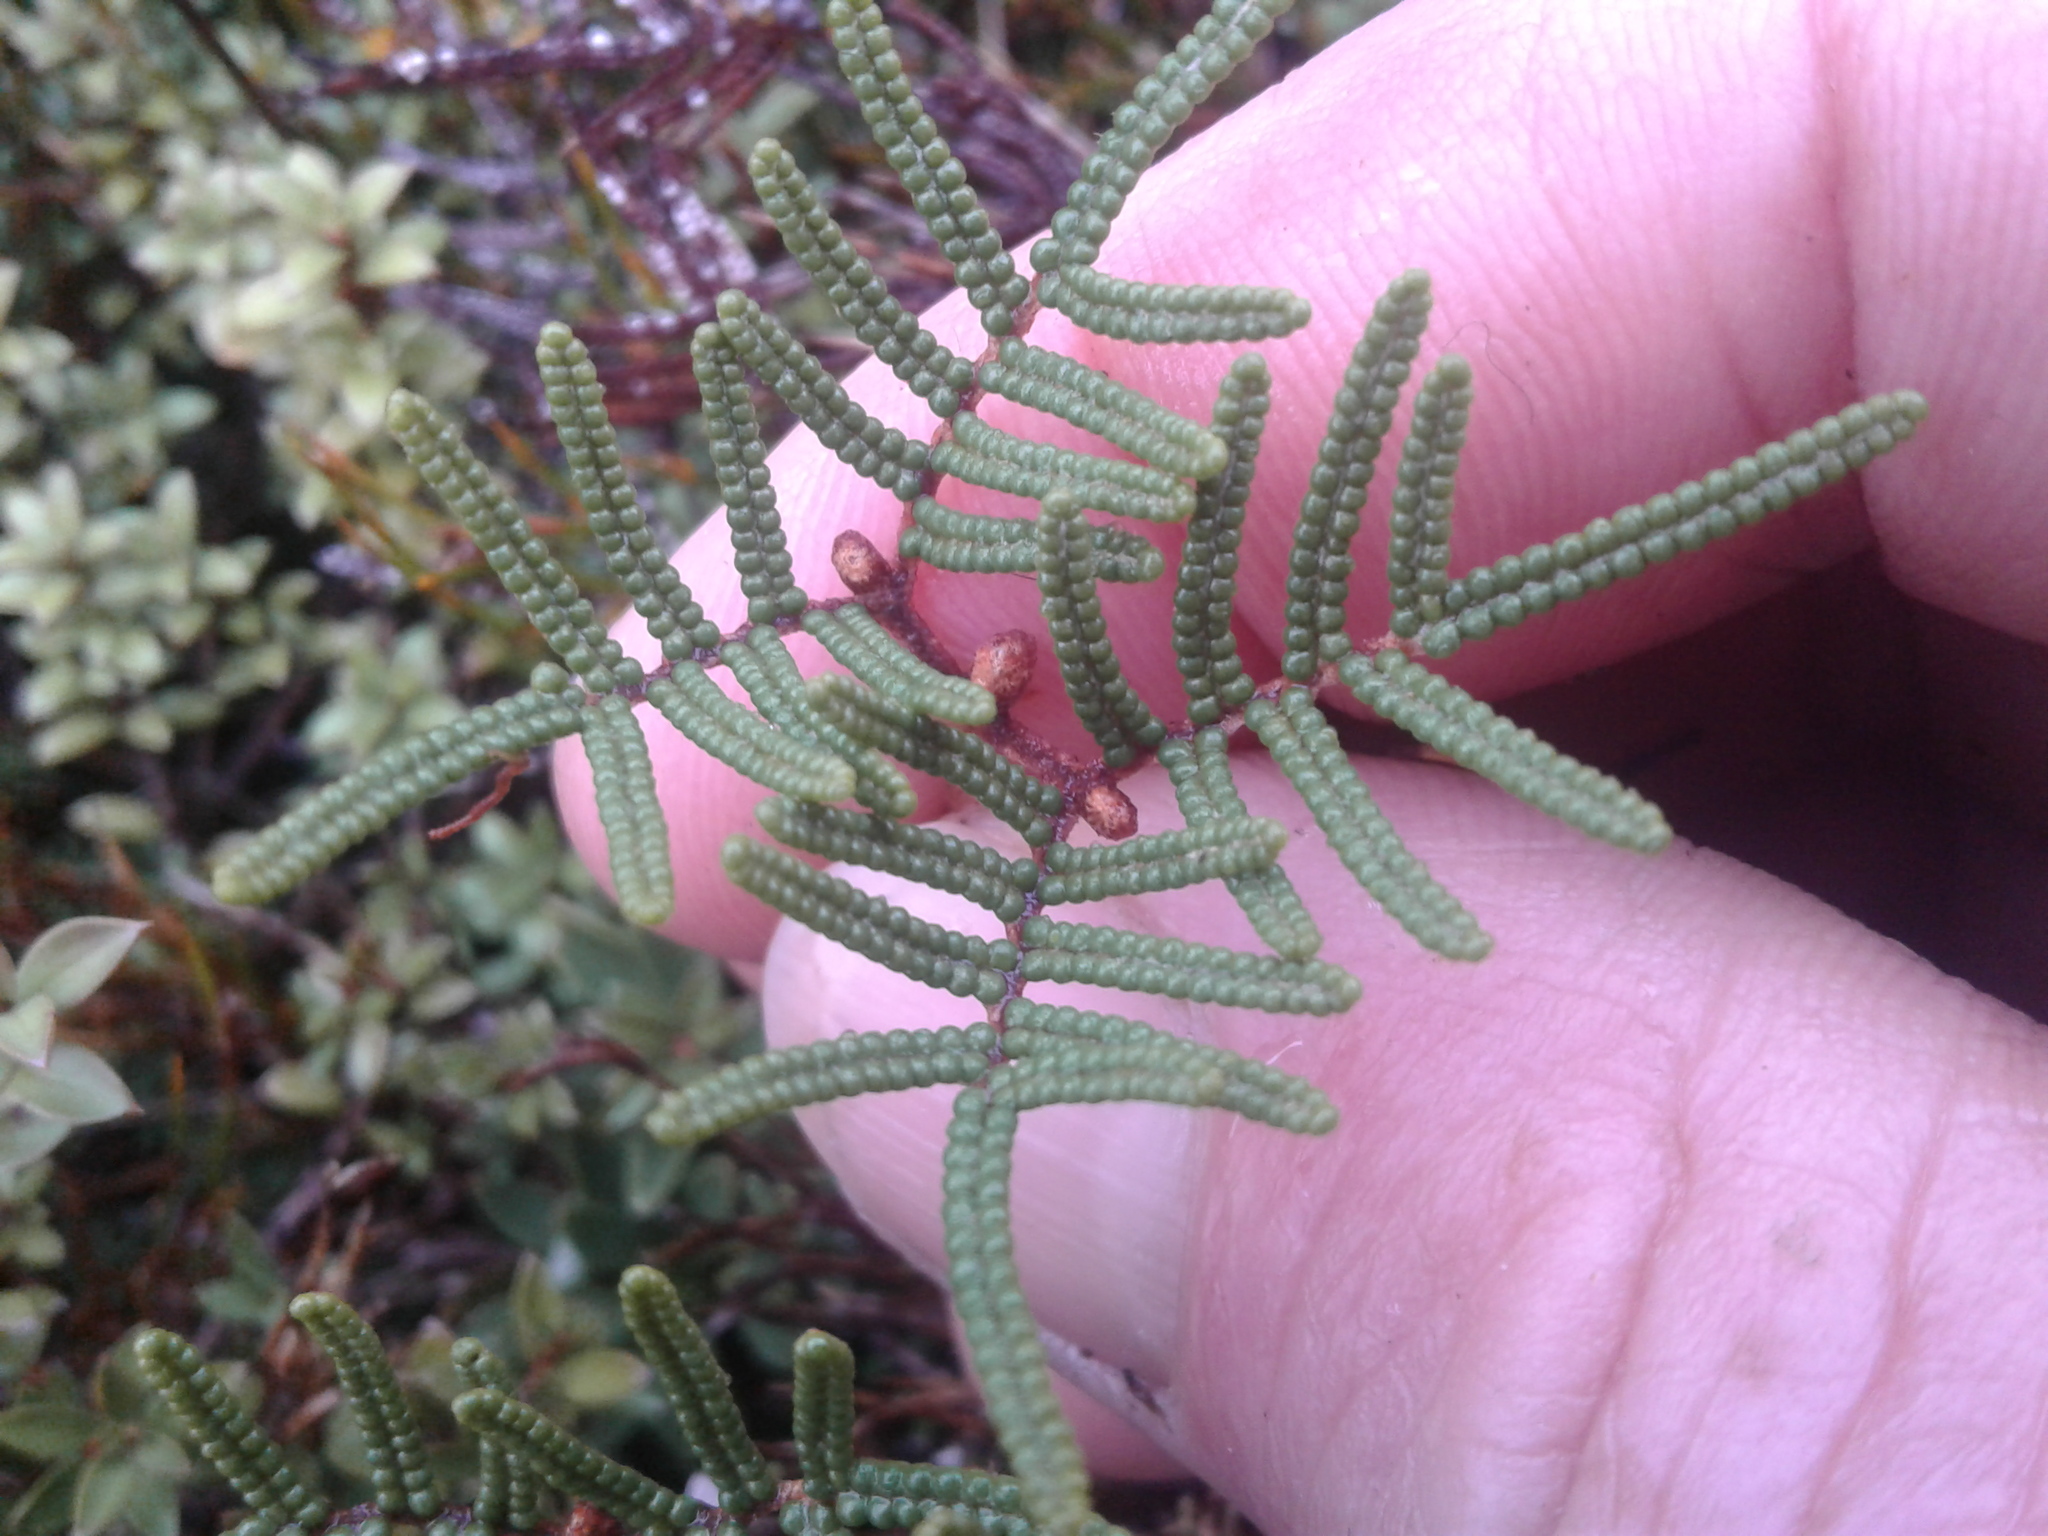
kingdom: Plantae
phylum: Tracheophyta
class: Polypodiopsida
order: Gleicheniales
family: Gleicheniaceae
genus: Gleichenia
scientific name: Gleichenia alpina
